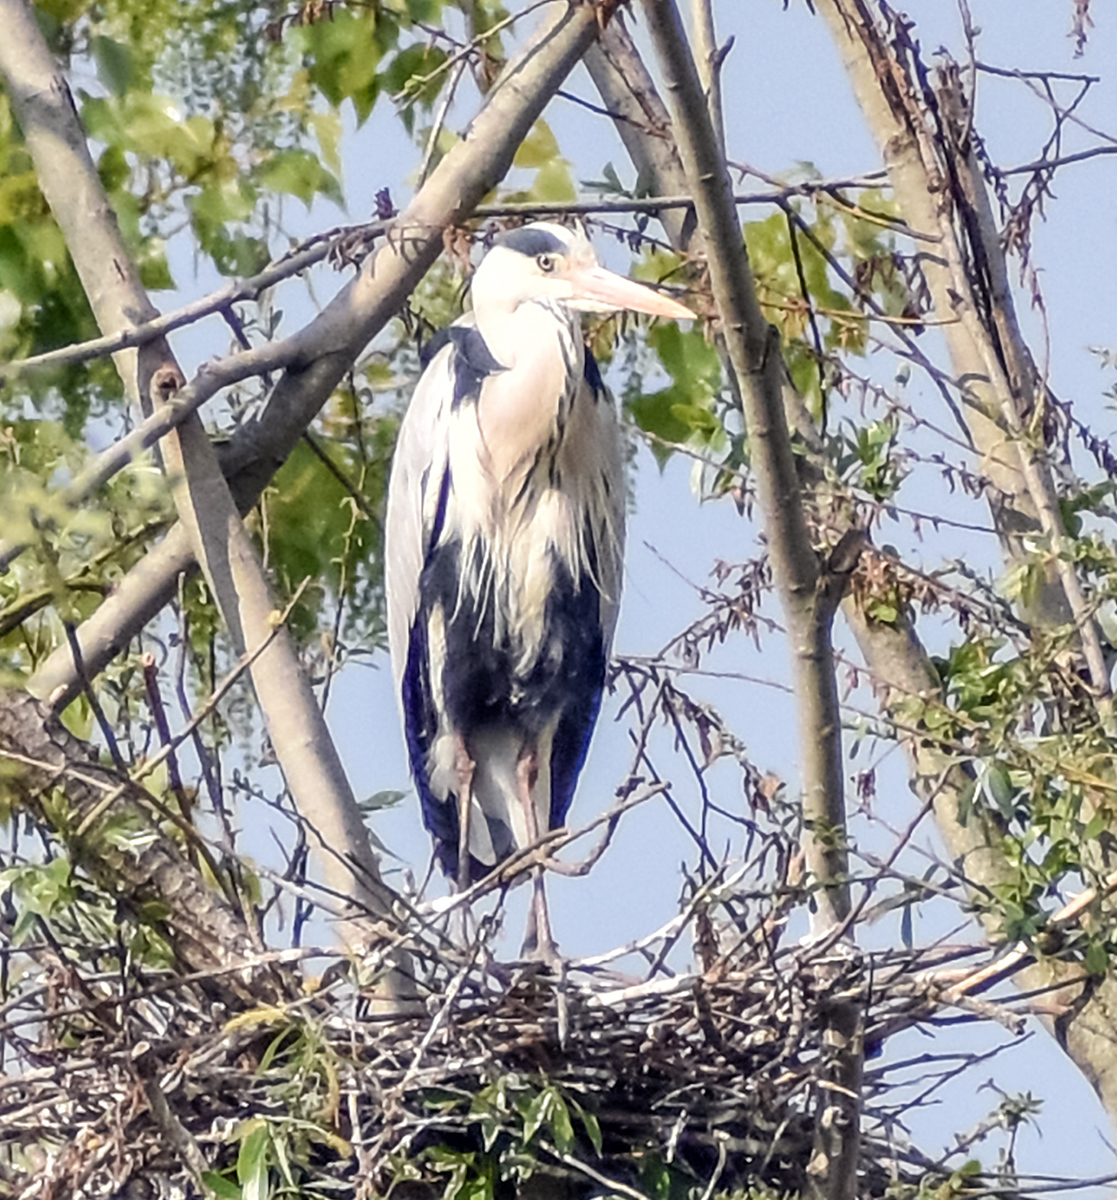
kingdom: Animalia
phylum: Chordata
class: Aves
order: Pelecaniformes
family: Ardeidae
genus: Ardea
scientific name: Ardea cinerea
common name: Grey heron
